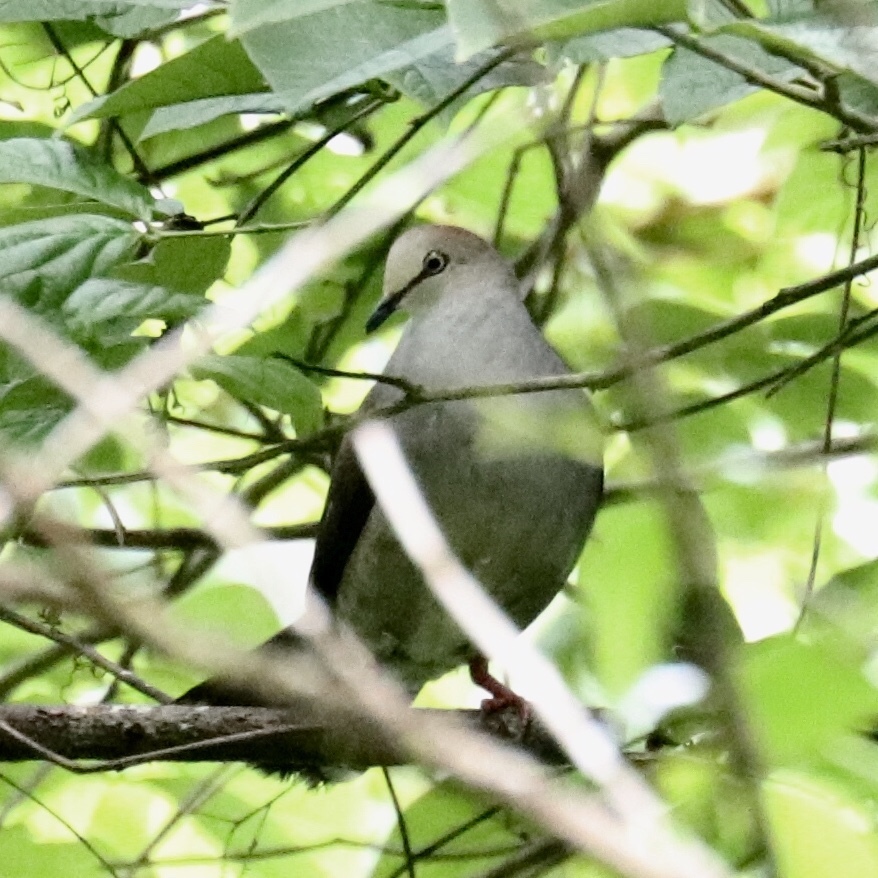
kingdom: Animalia
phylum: Chordata
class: Aves
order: Columbiformes
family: Columbidae
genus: Leptotila
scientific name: Leptotila cassinii
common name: Grey-chested dove
